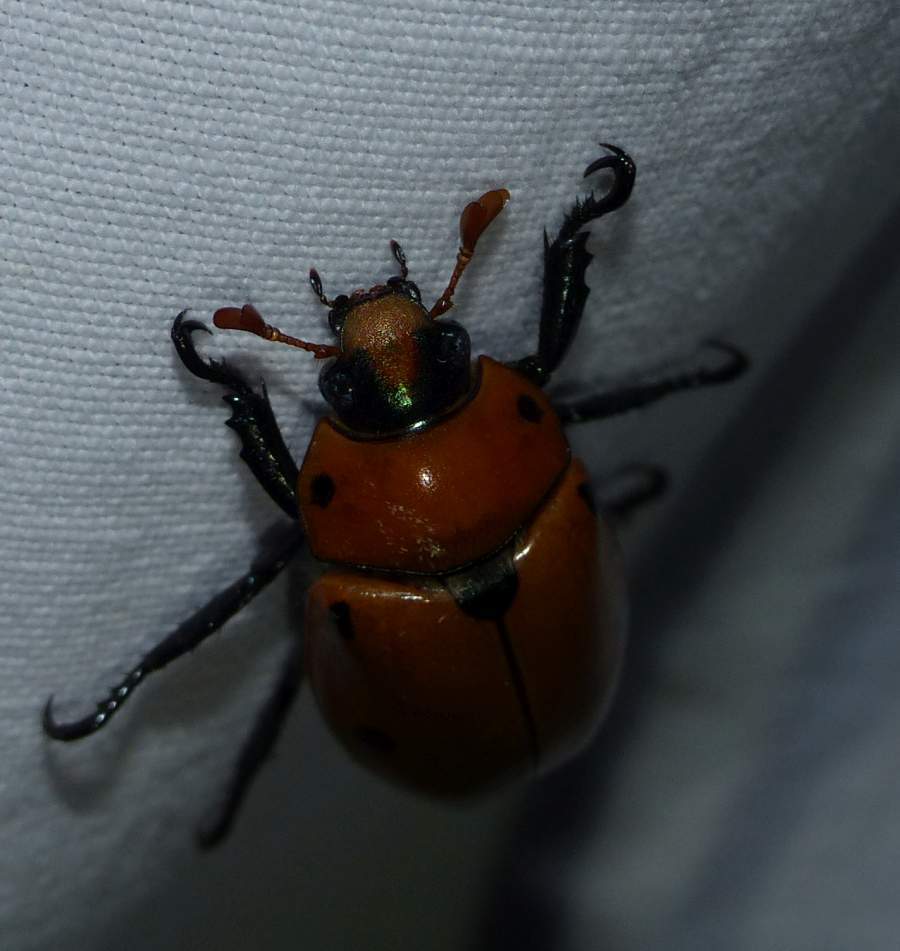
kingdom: Animalia
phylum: Arthropoda
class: Insecta
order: Coleoptera
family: Scarabaeidae
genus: Pelidnota
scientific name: Pelidnota punctata
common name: Grapevine beetle
